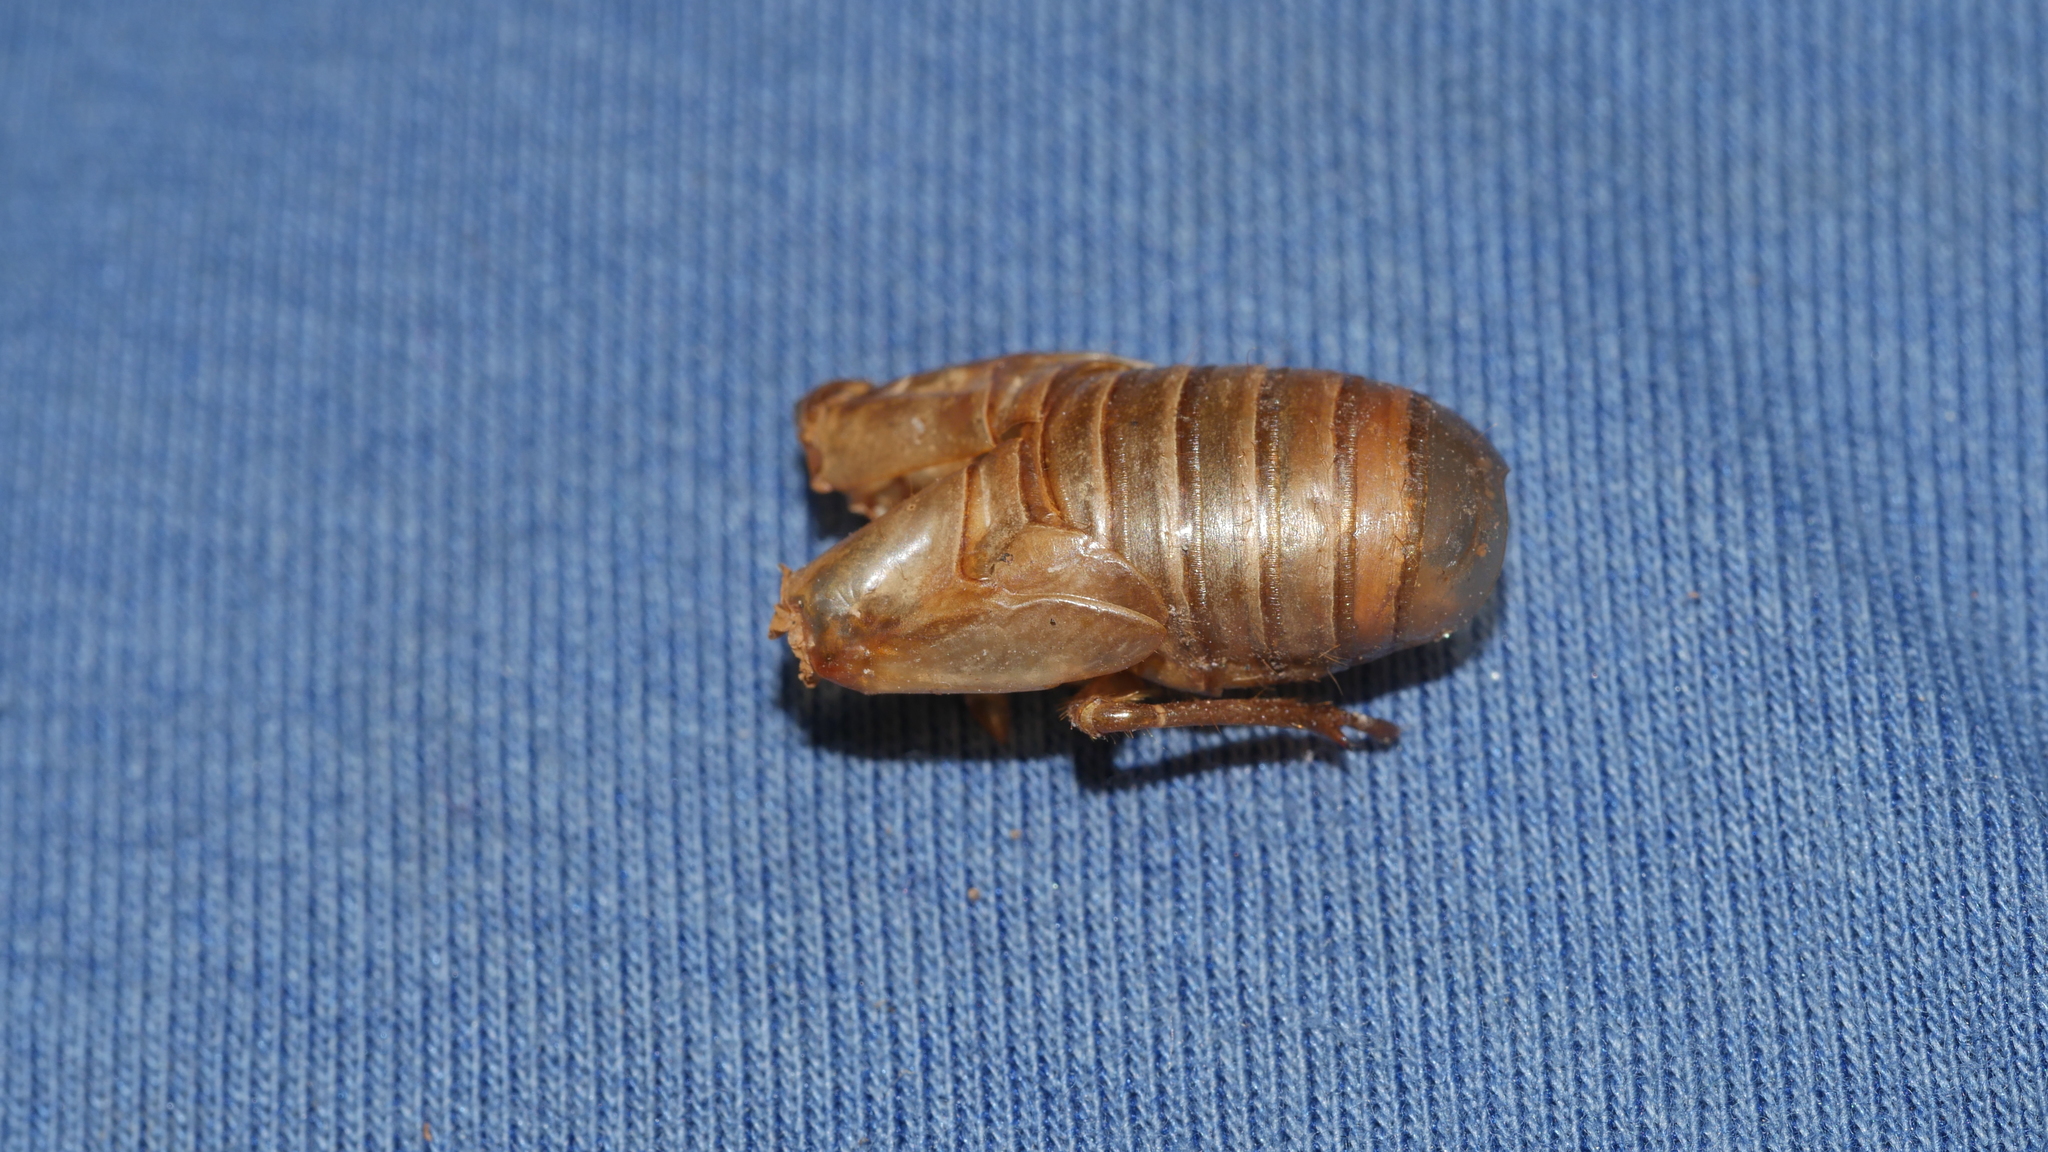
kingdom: Animalia
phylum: Arthropoda
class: Insecta
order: Hemiptera
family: Cicadidae
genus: Magicicada
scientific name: Magicicada
